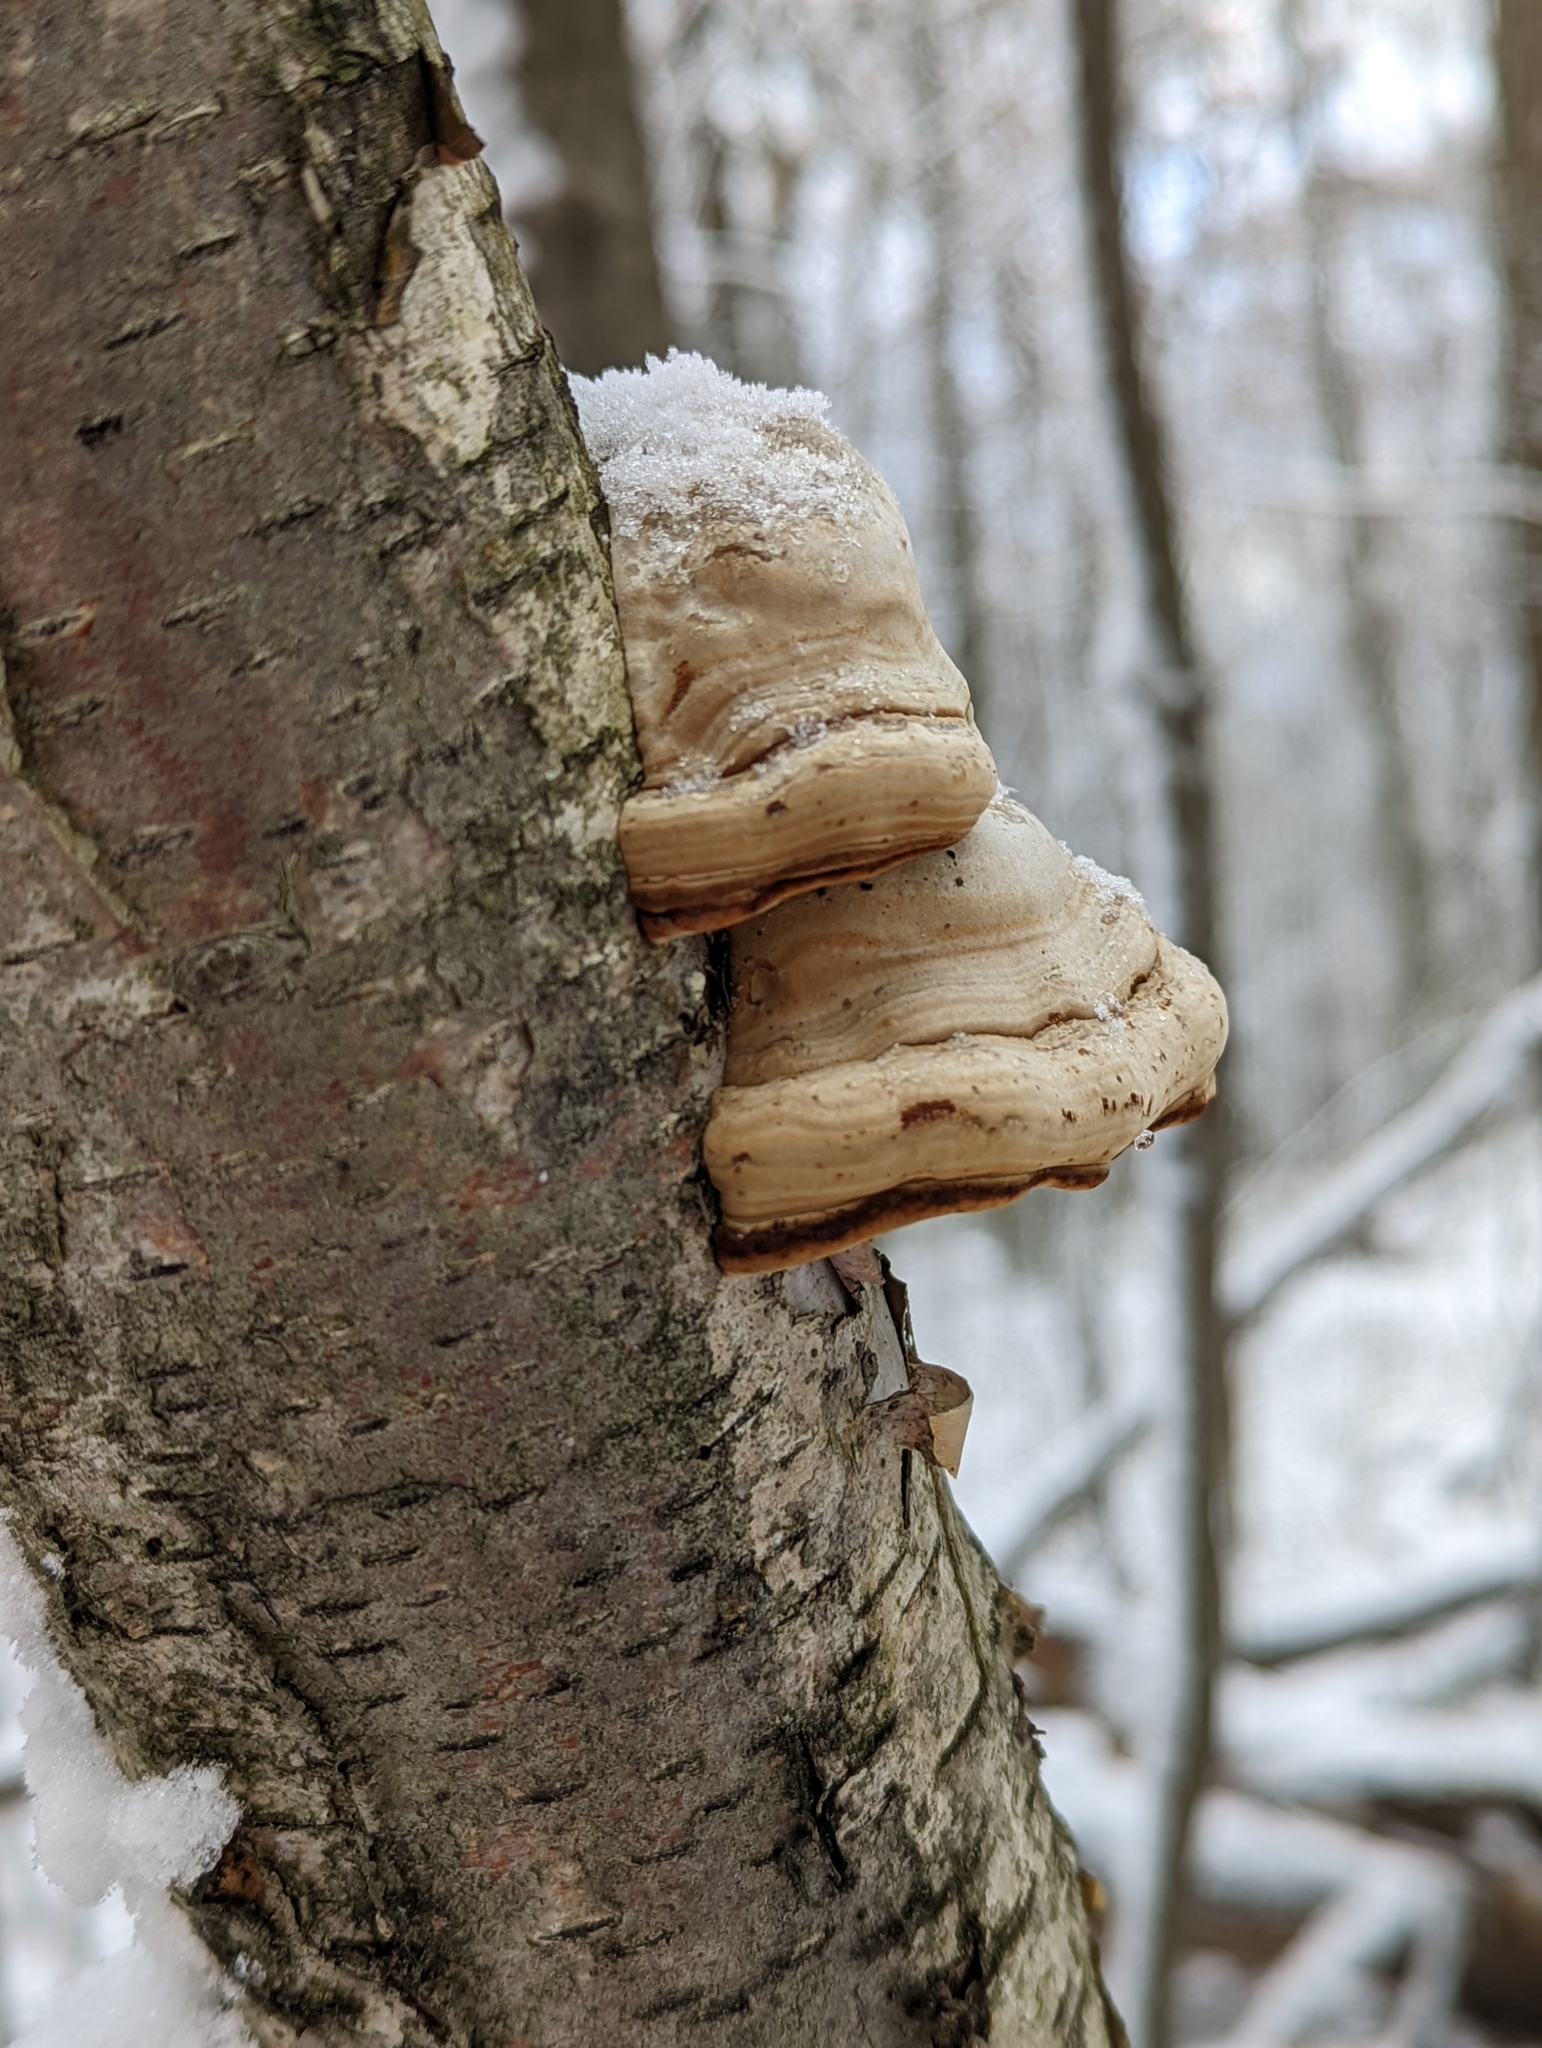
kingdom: Fungi
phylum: Basidiomycota
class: Agaricomycetes
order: Polyporales
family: Polyporaceae
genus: Fomes
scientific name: Fomes fomentarius
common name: Hoof fungus
